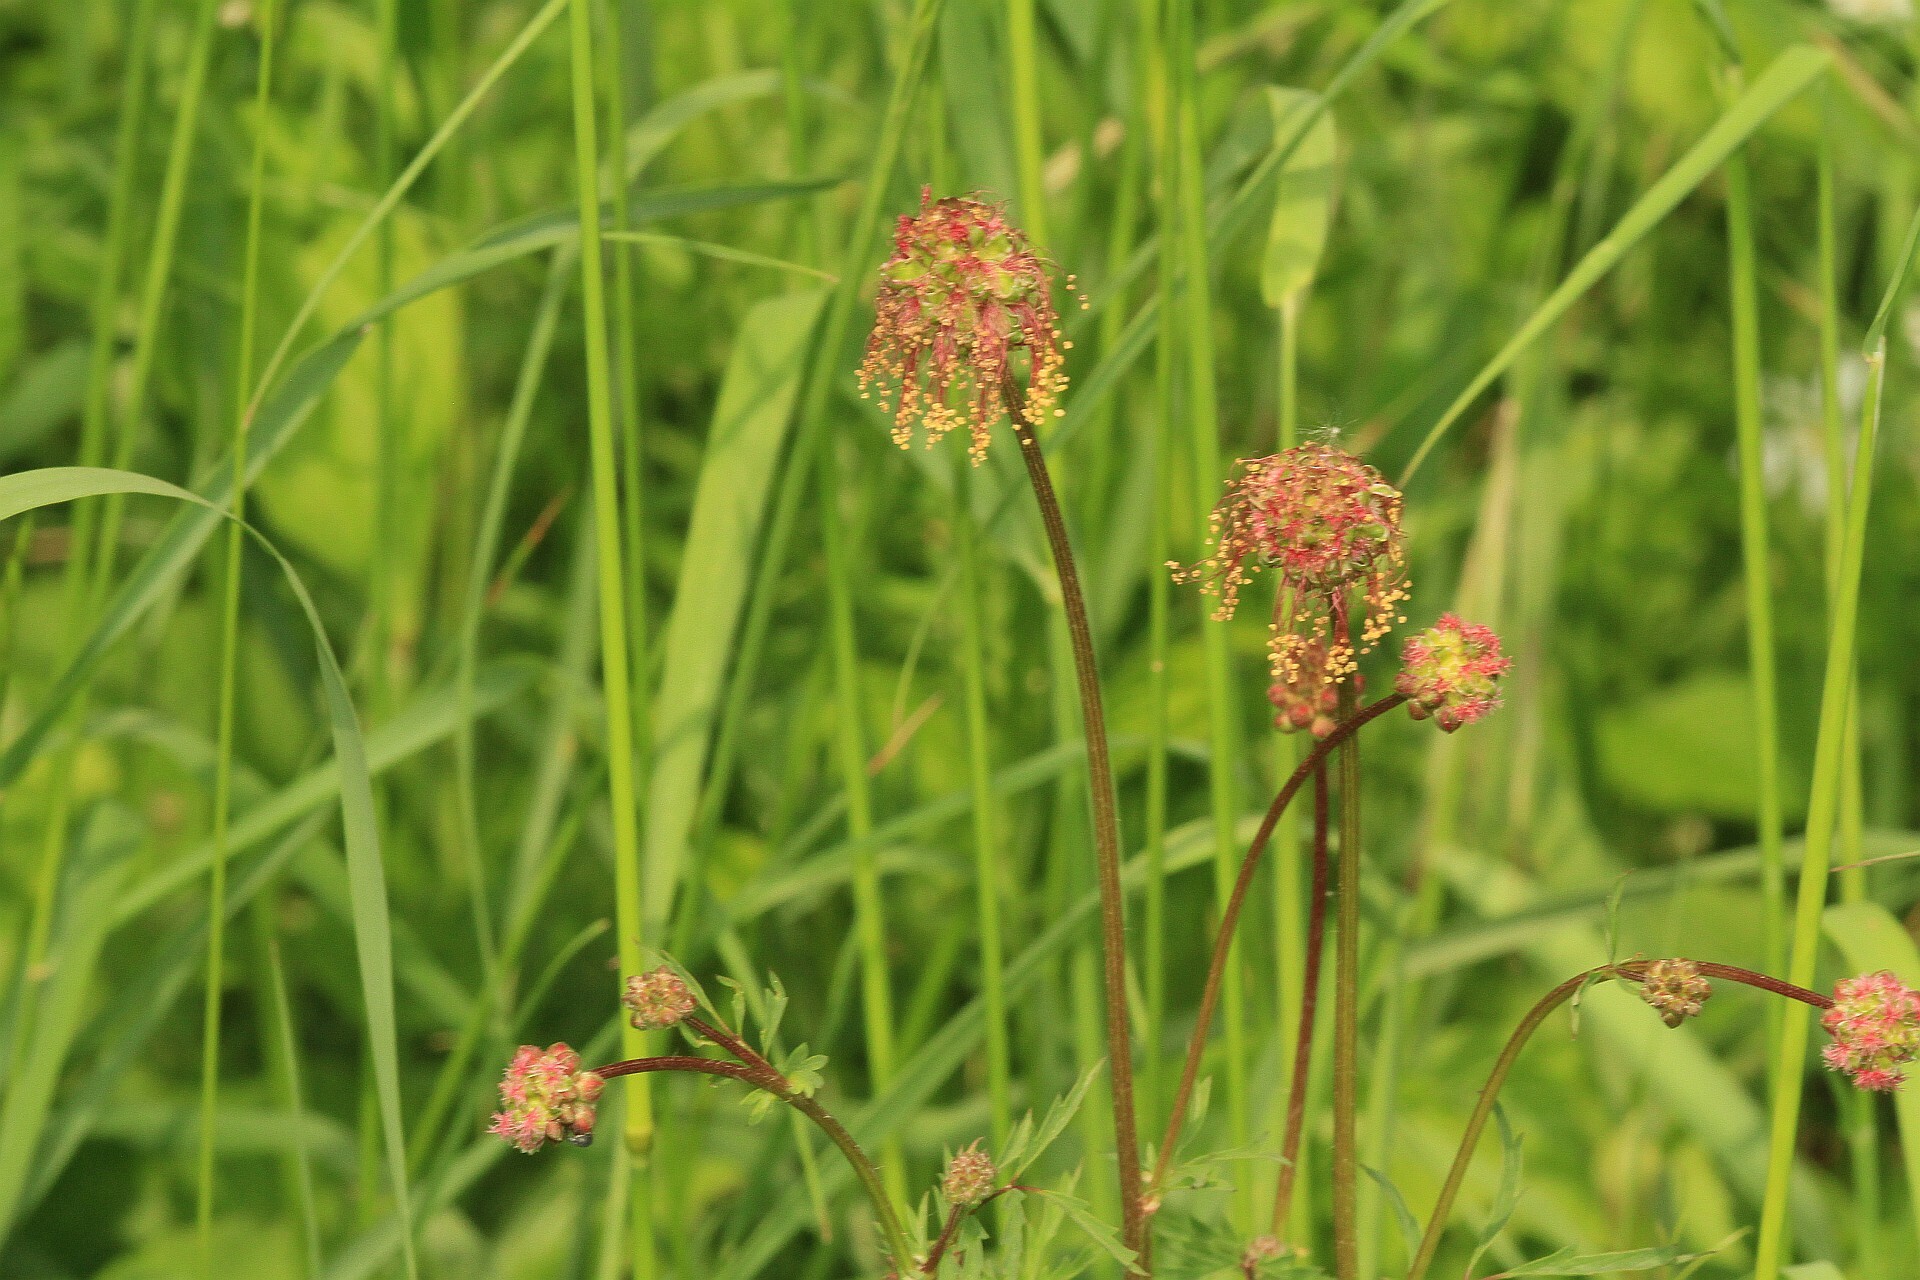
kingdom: Plantae
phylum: Tracheophyta
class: Magnoliopsida
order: Rosales
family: Rosaceae
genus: Poterium
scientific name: Poterium sanguisorba
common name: Salad burnet
